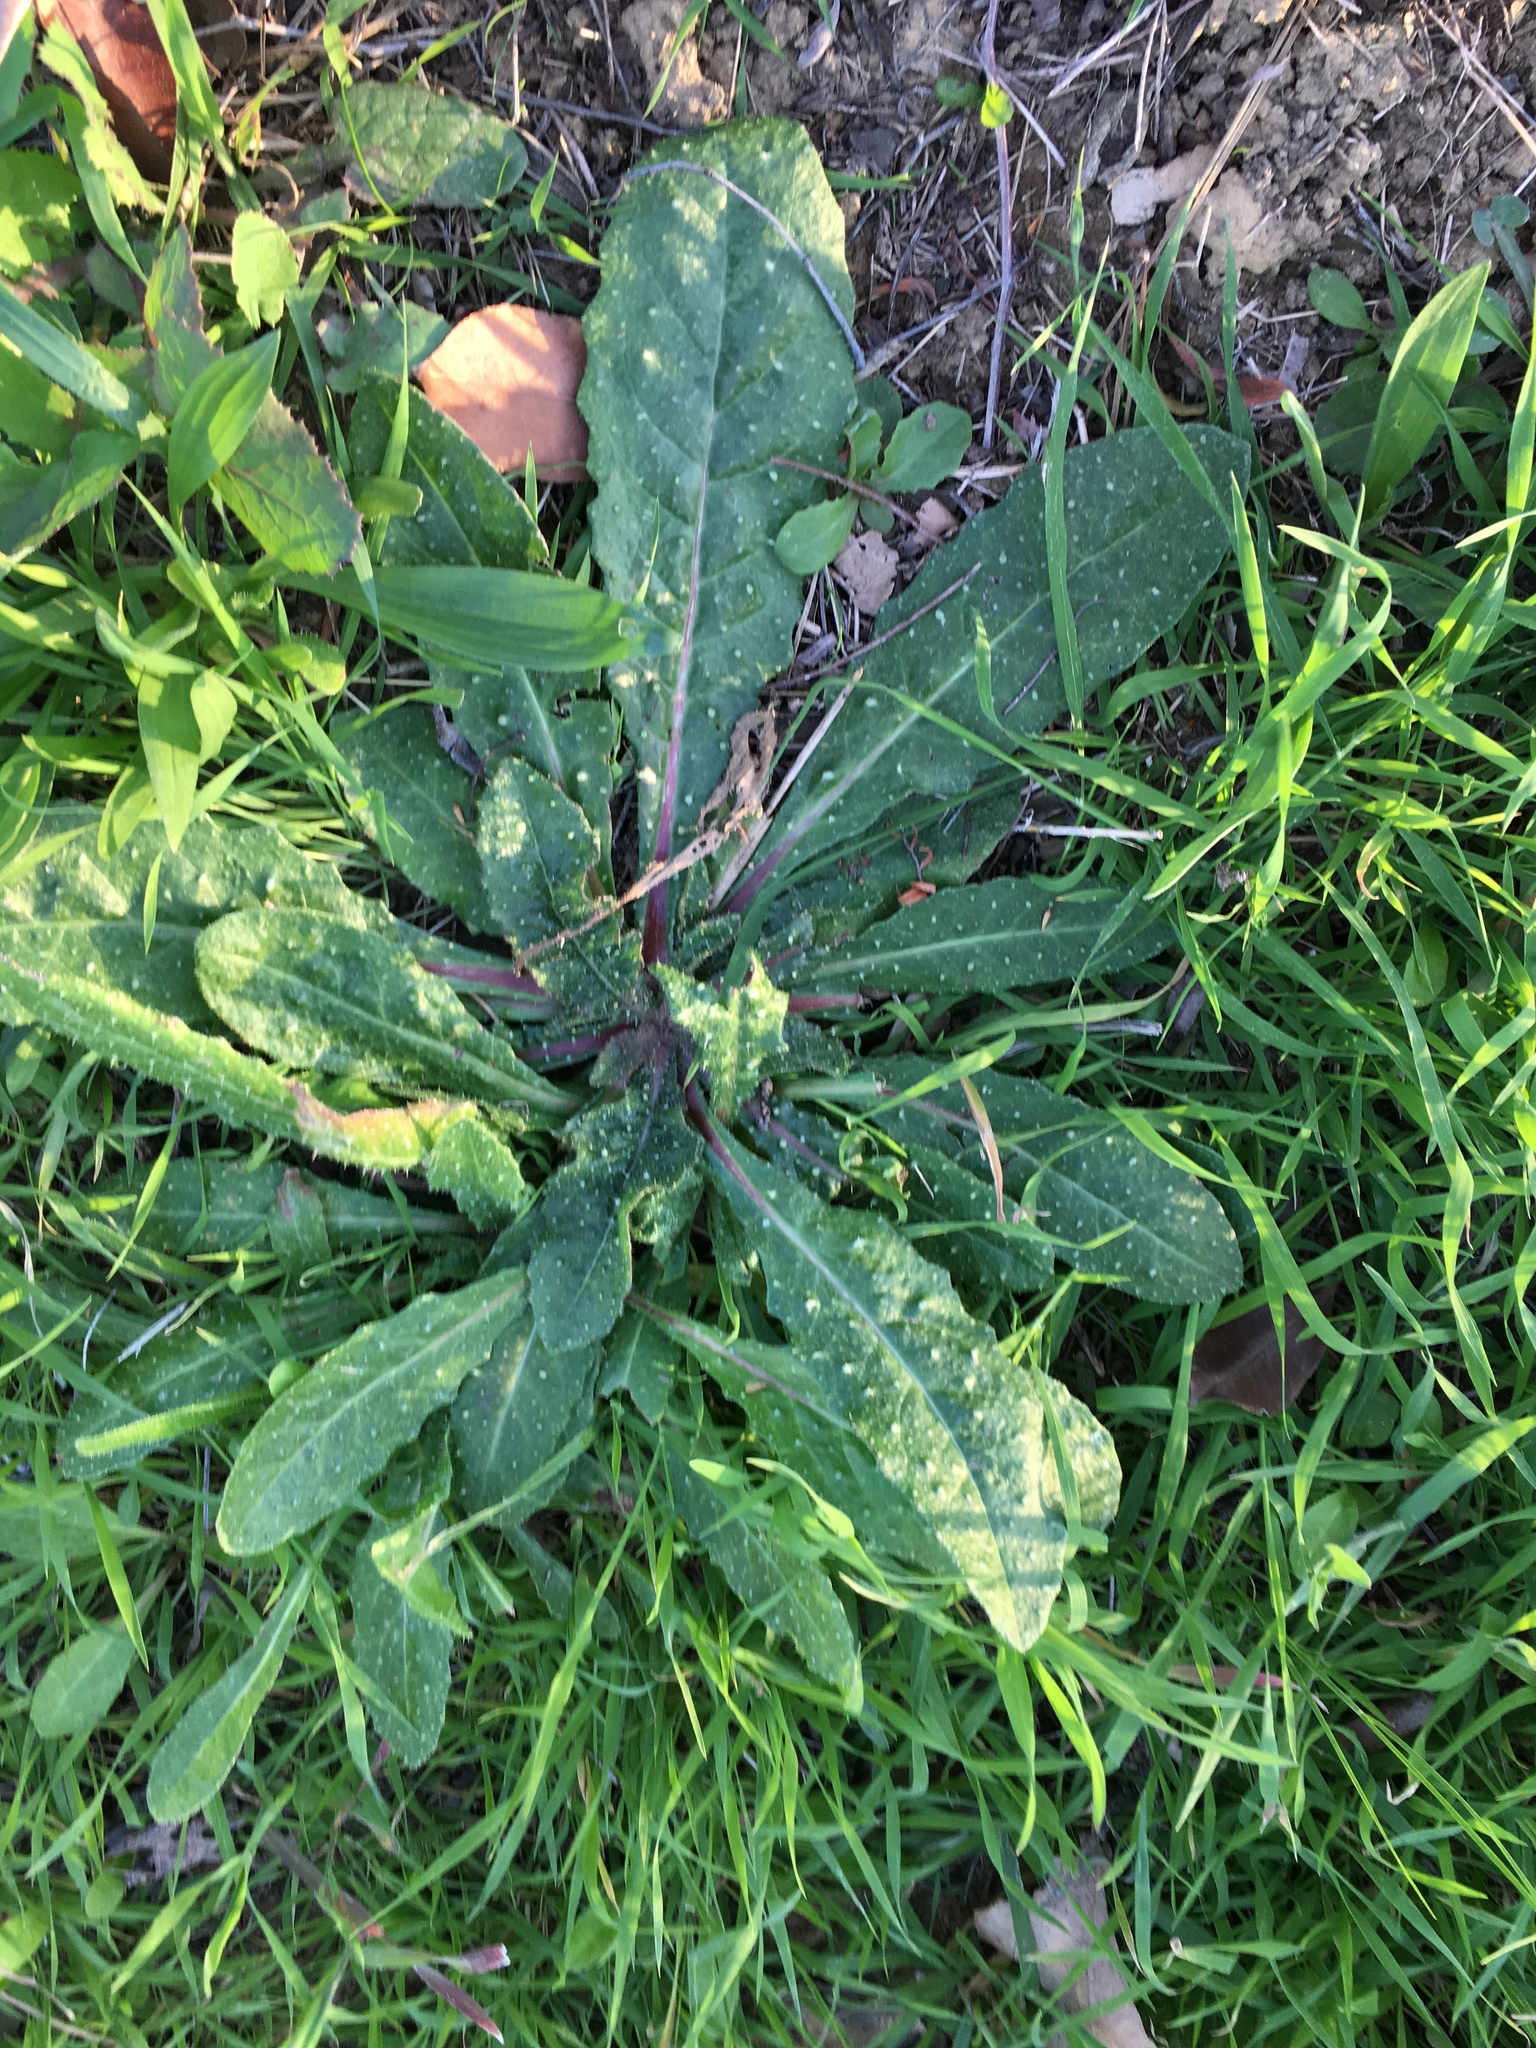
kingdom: Plantae
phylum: Tracheophyta
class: Magnoliopsida
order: Asterales
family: Asteraceae
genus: Helminthotheca
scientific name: Helminthotheca echioides
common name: Ox-tongue
